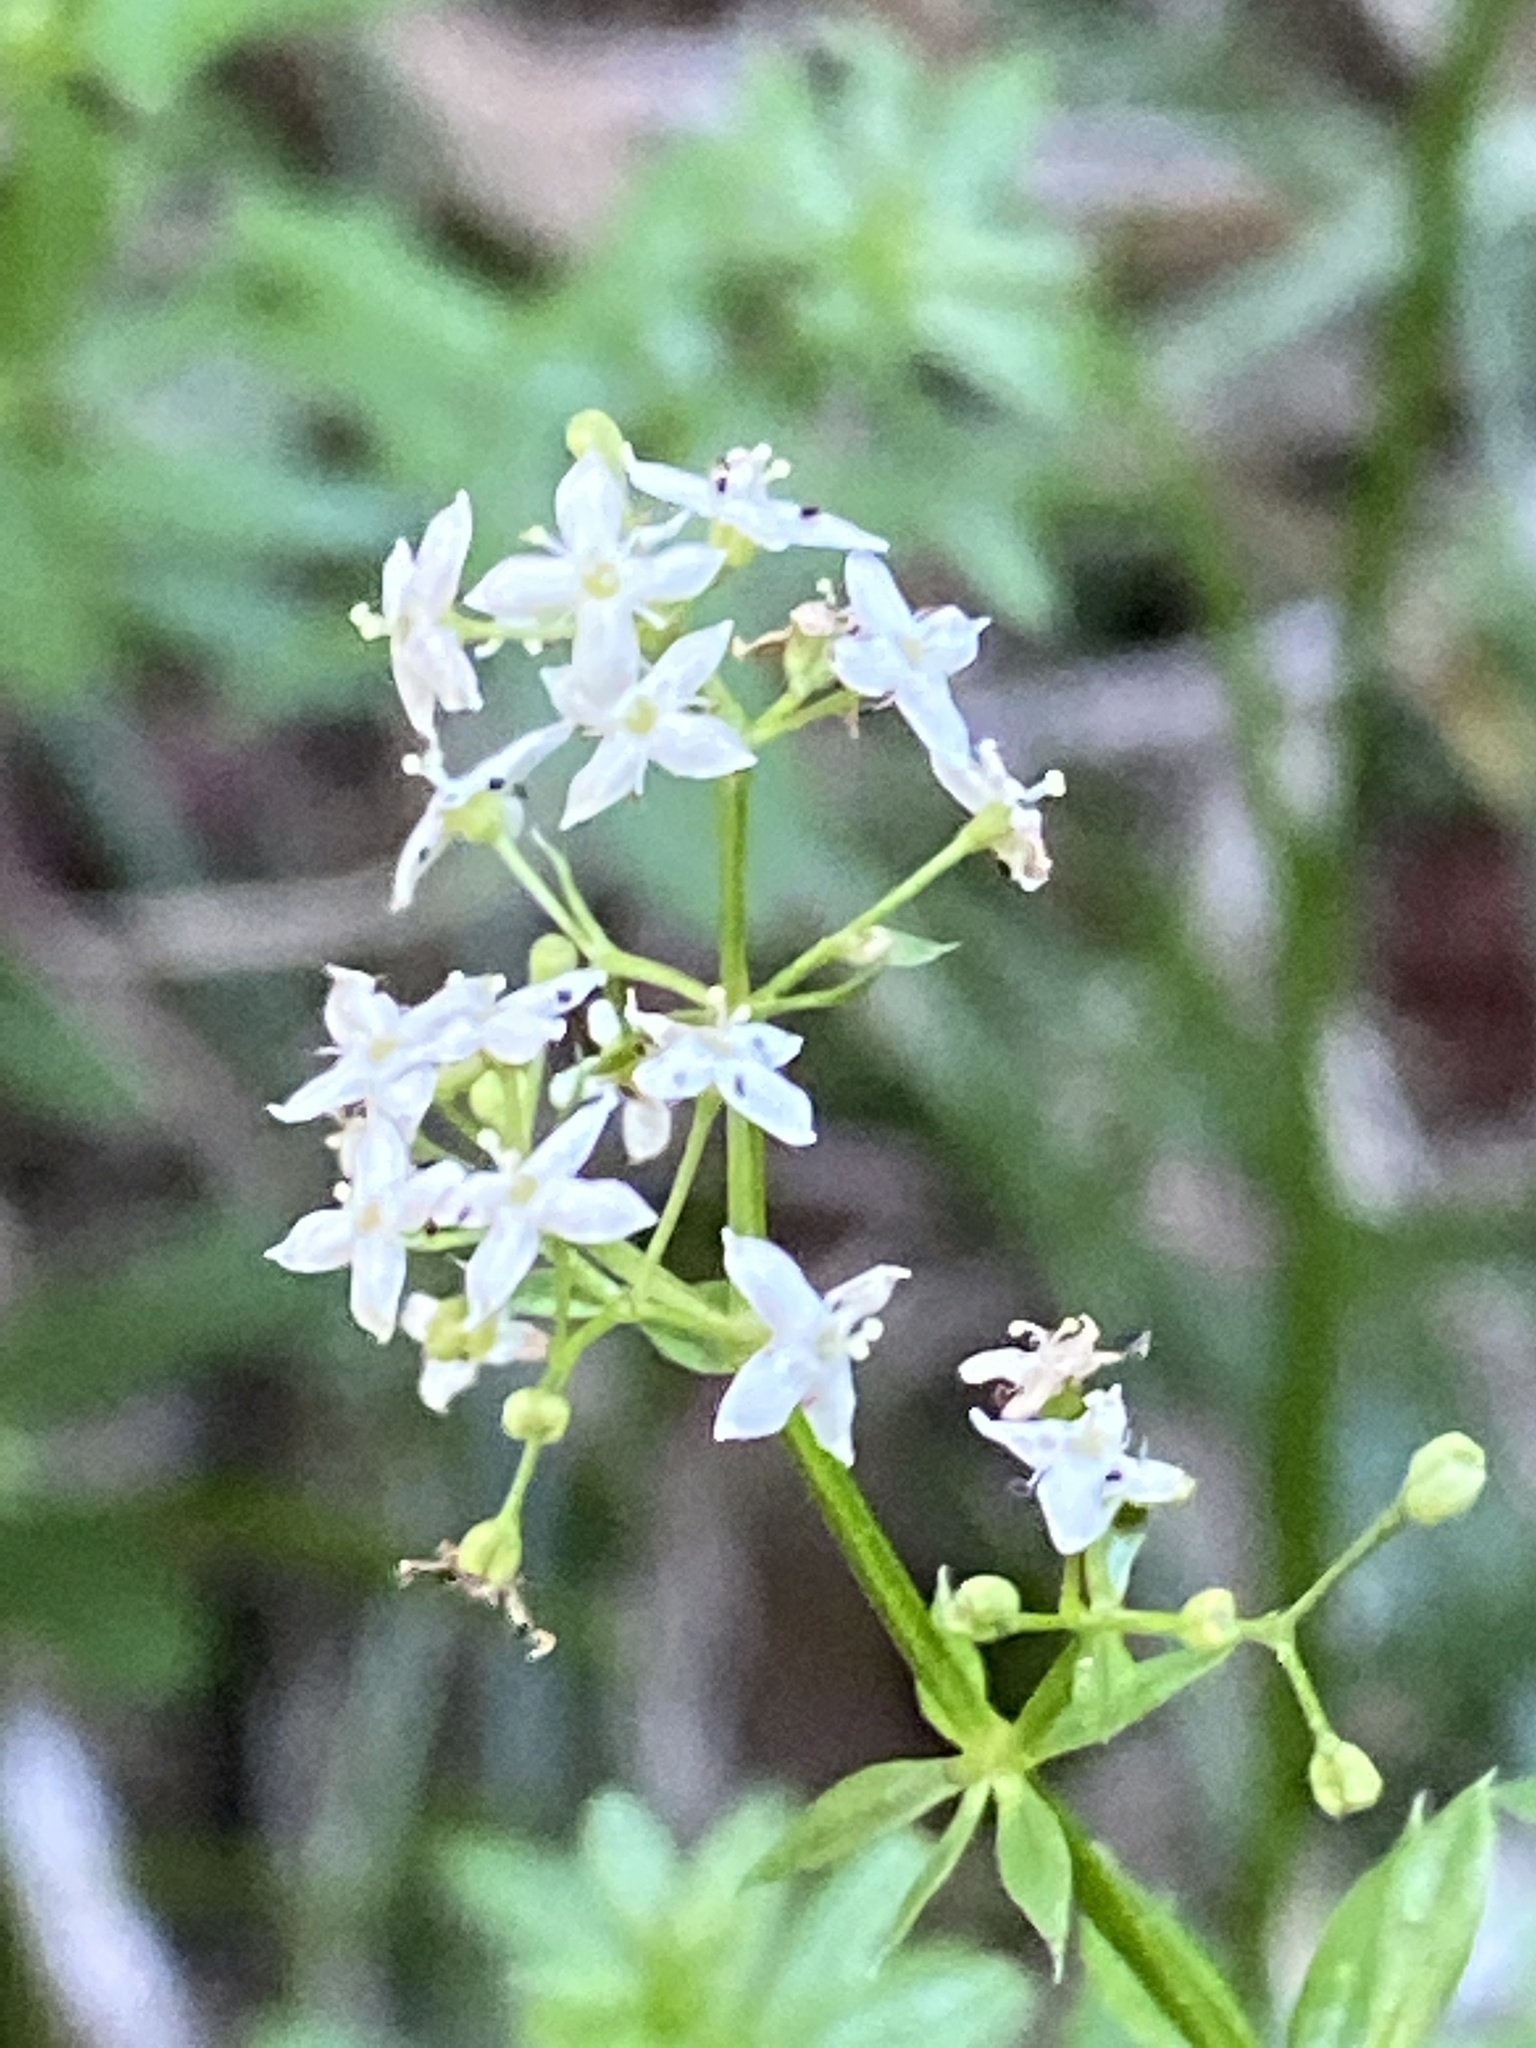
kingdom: Plantae
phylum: Tracheophyta
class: Magnoliopsida
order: Gentianales
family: Rubiaceae
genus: Galium
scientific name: Galium mollugo
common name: Hedge bedstraw
